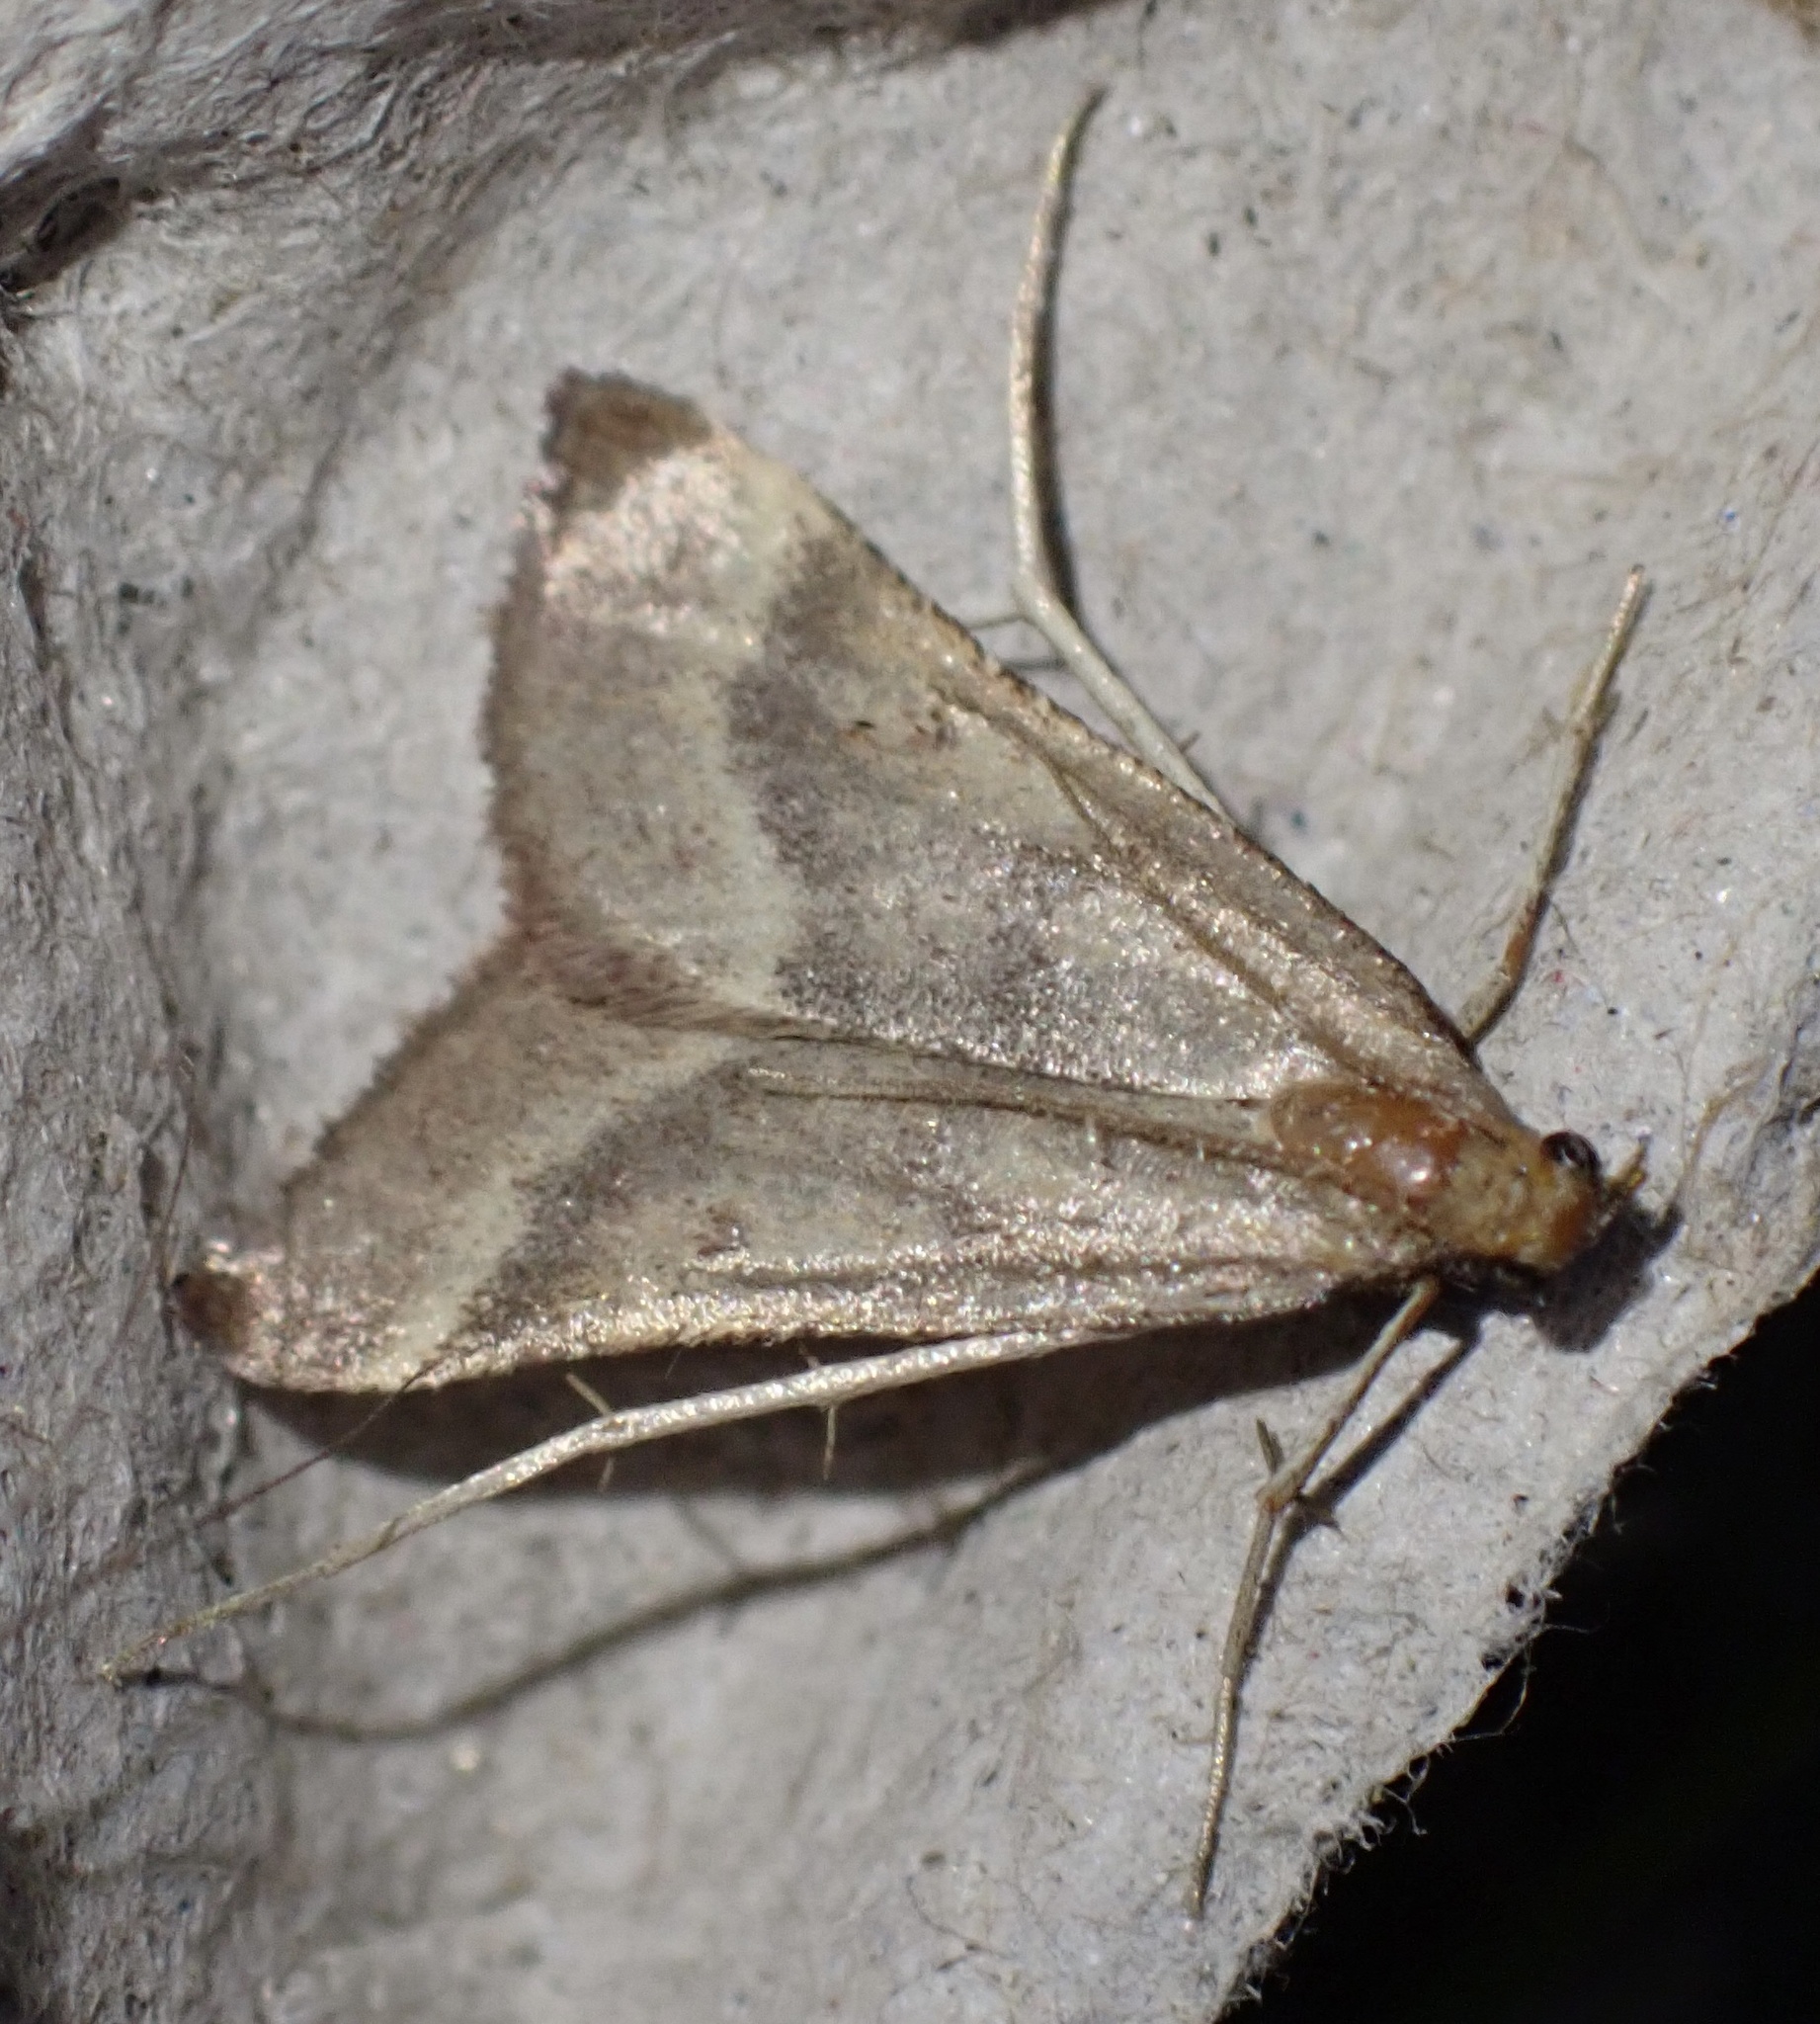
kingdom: Animalia
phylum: Arthropoda
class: Insecta
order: Lepidoptera
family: Pyralidae
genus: Synaphe
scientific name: Synaphe punctalis
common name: Long-legged tabby
